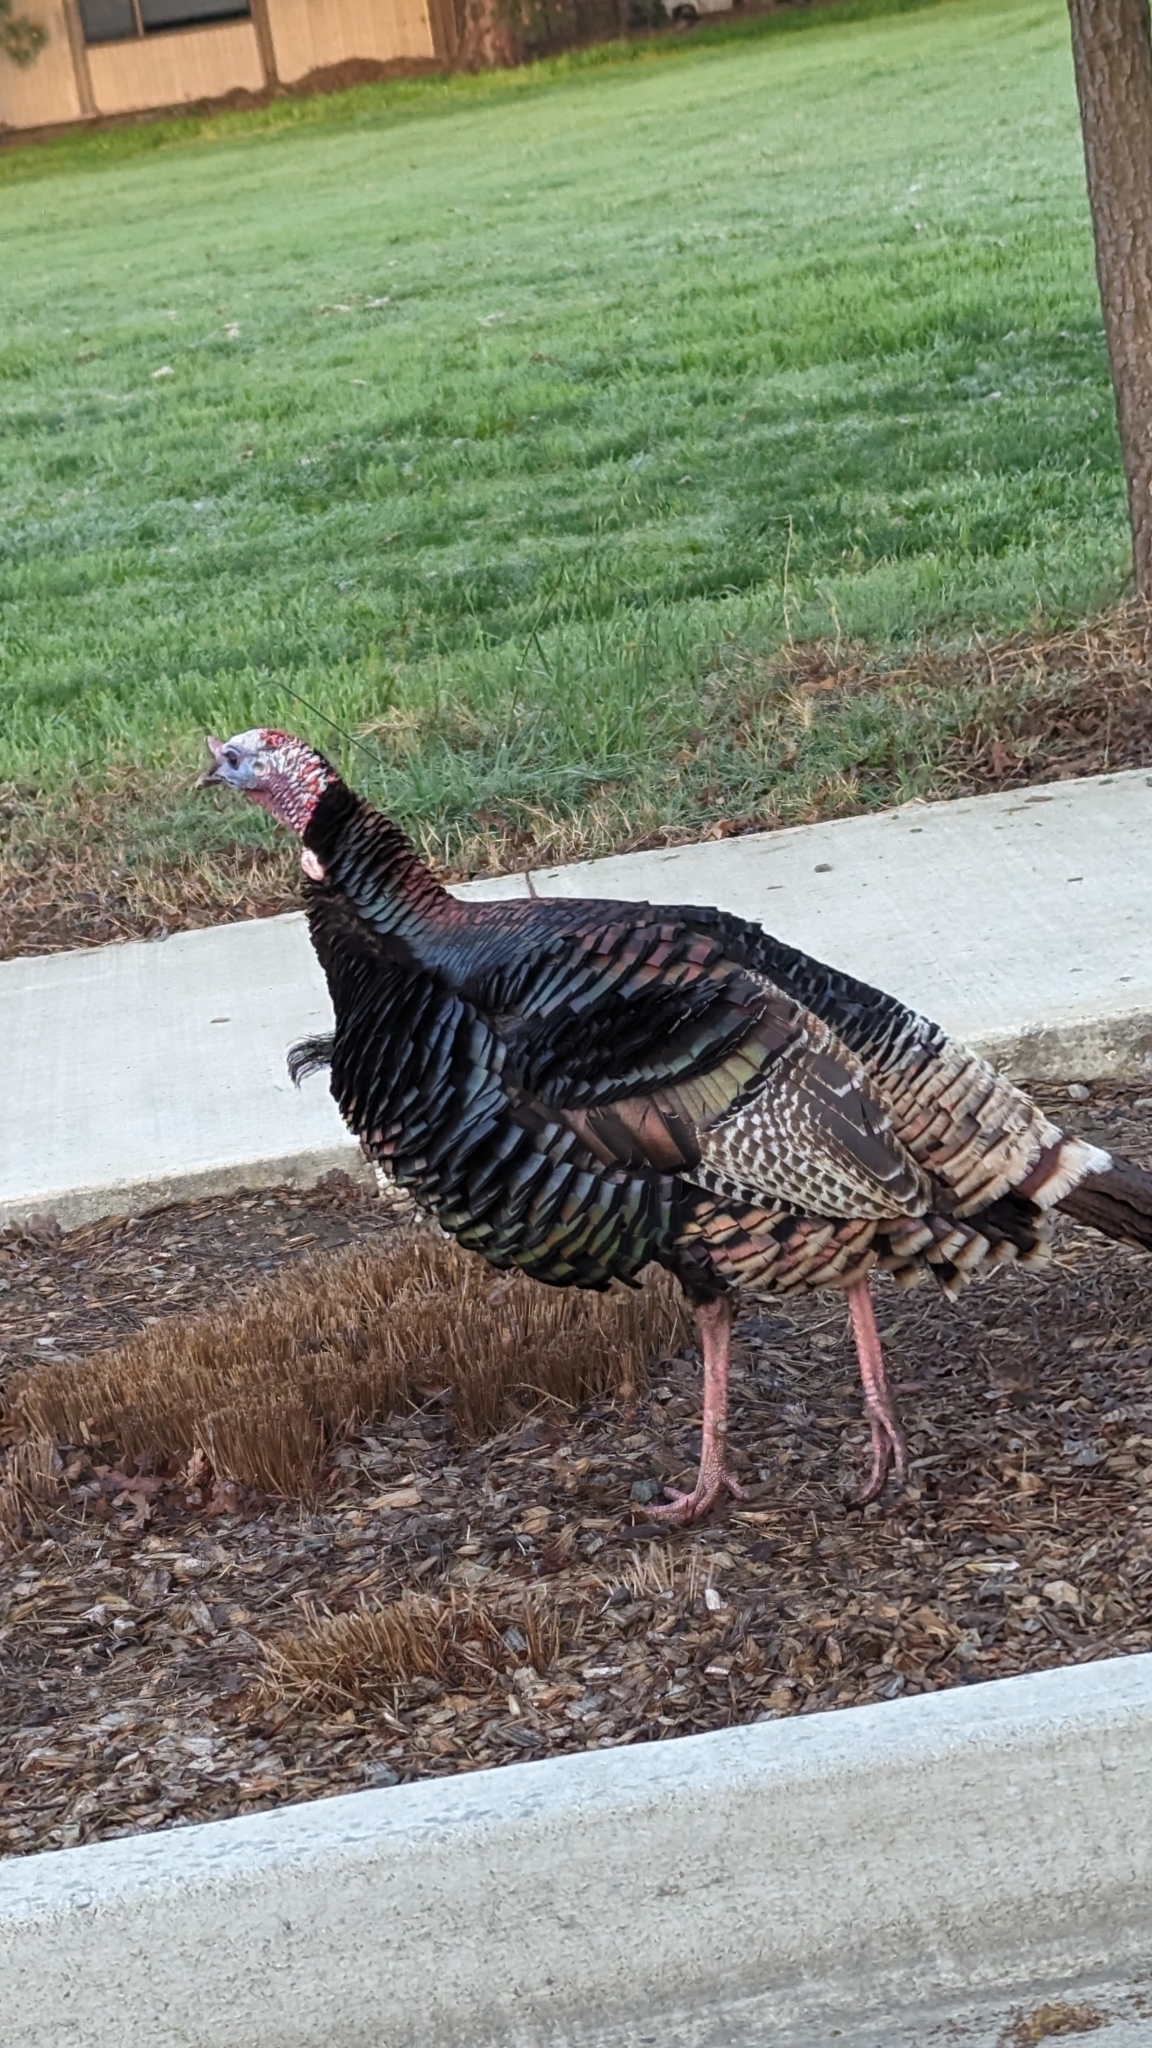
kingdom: Animalia
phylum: Chordata
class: Aves
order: Galliformes
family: Phasianidae
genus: Meleagris
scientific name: Meleagris gallopavo
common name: Wild turkey
